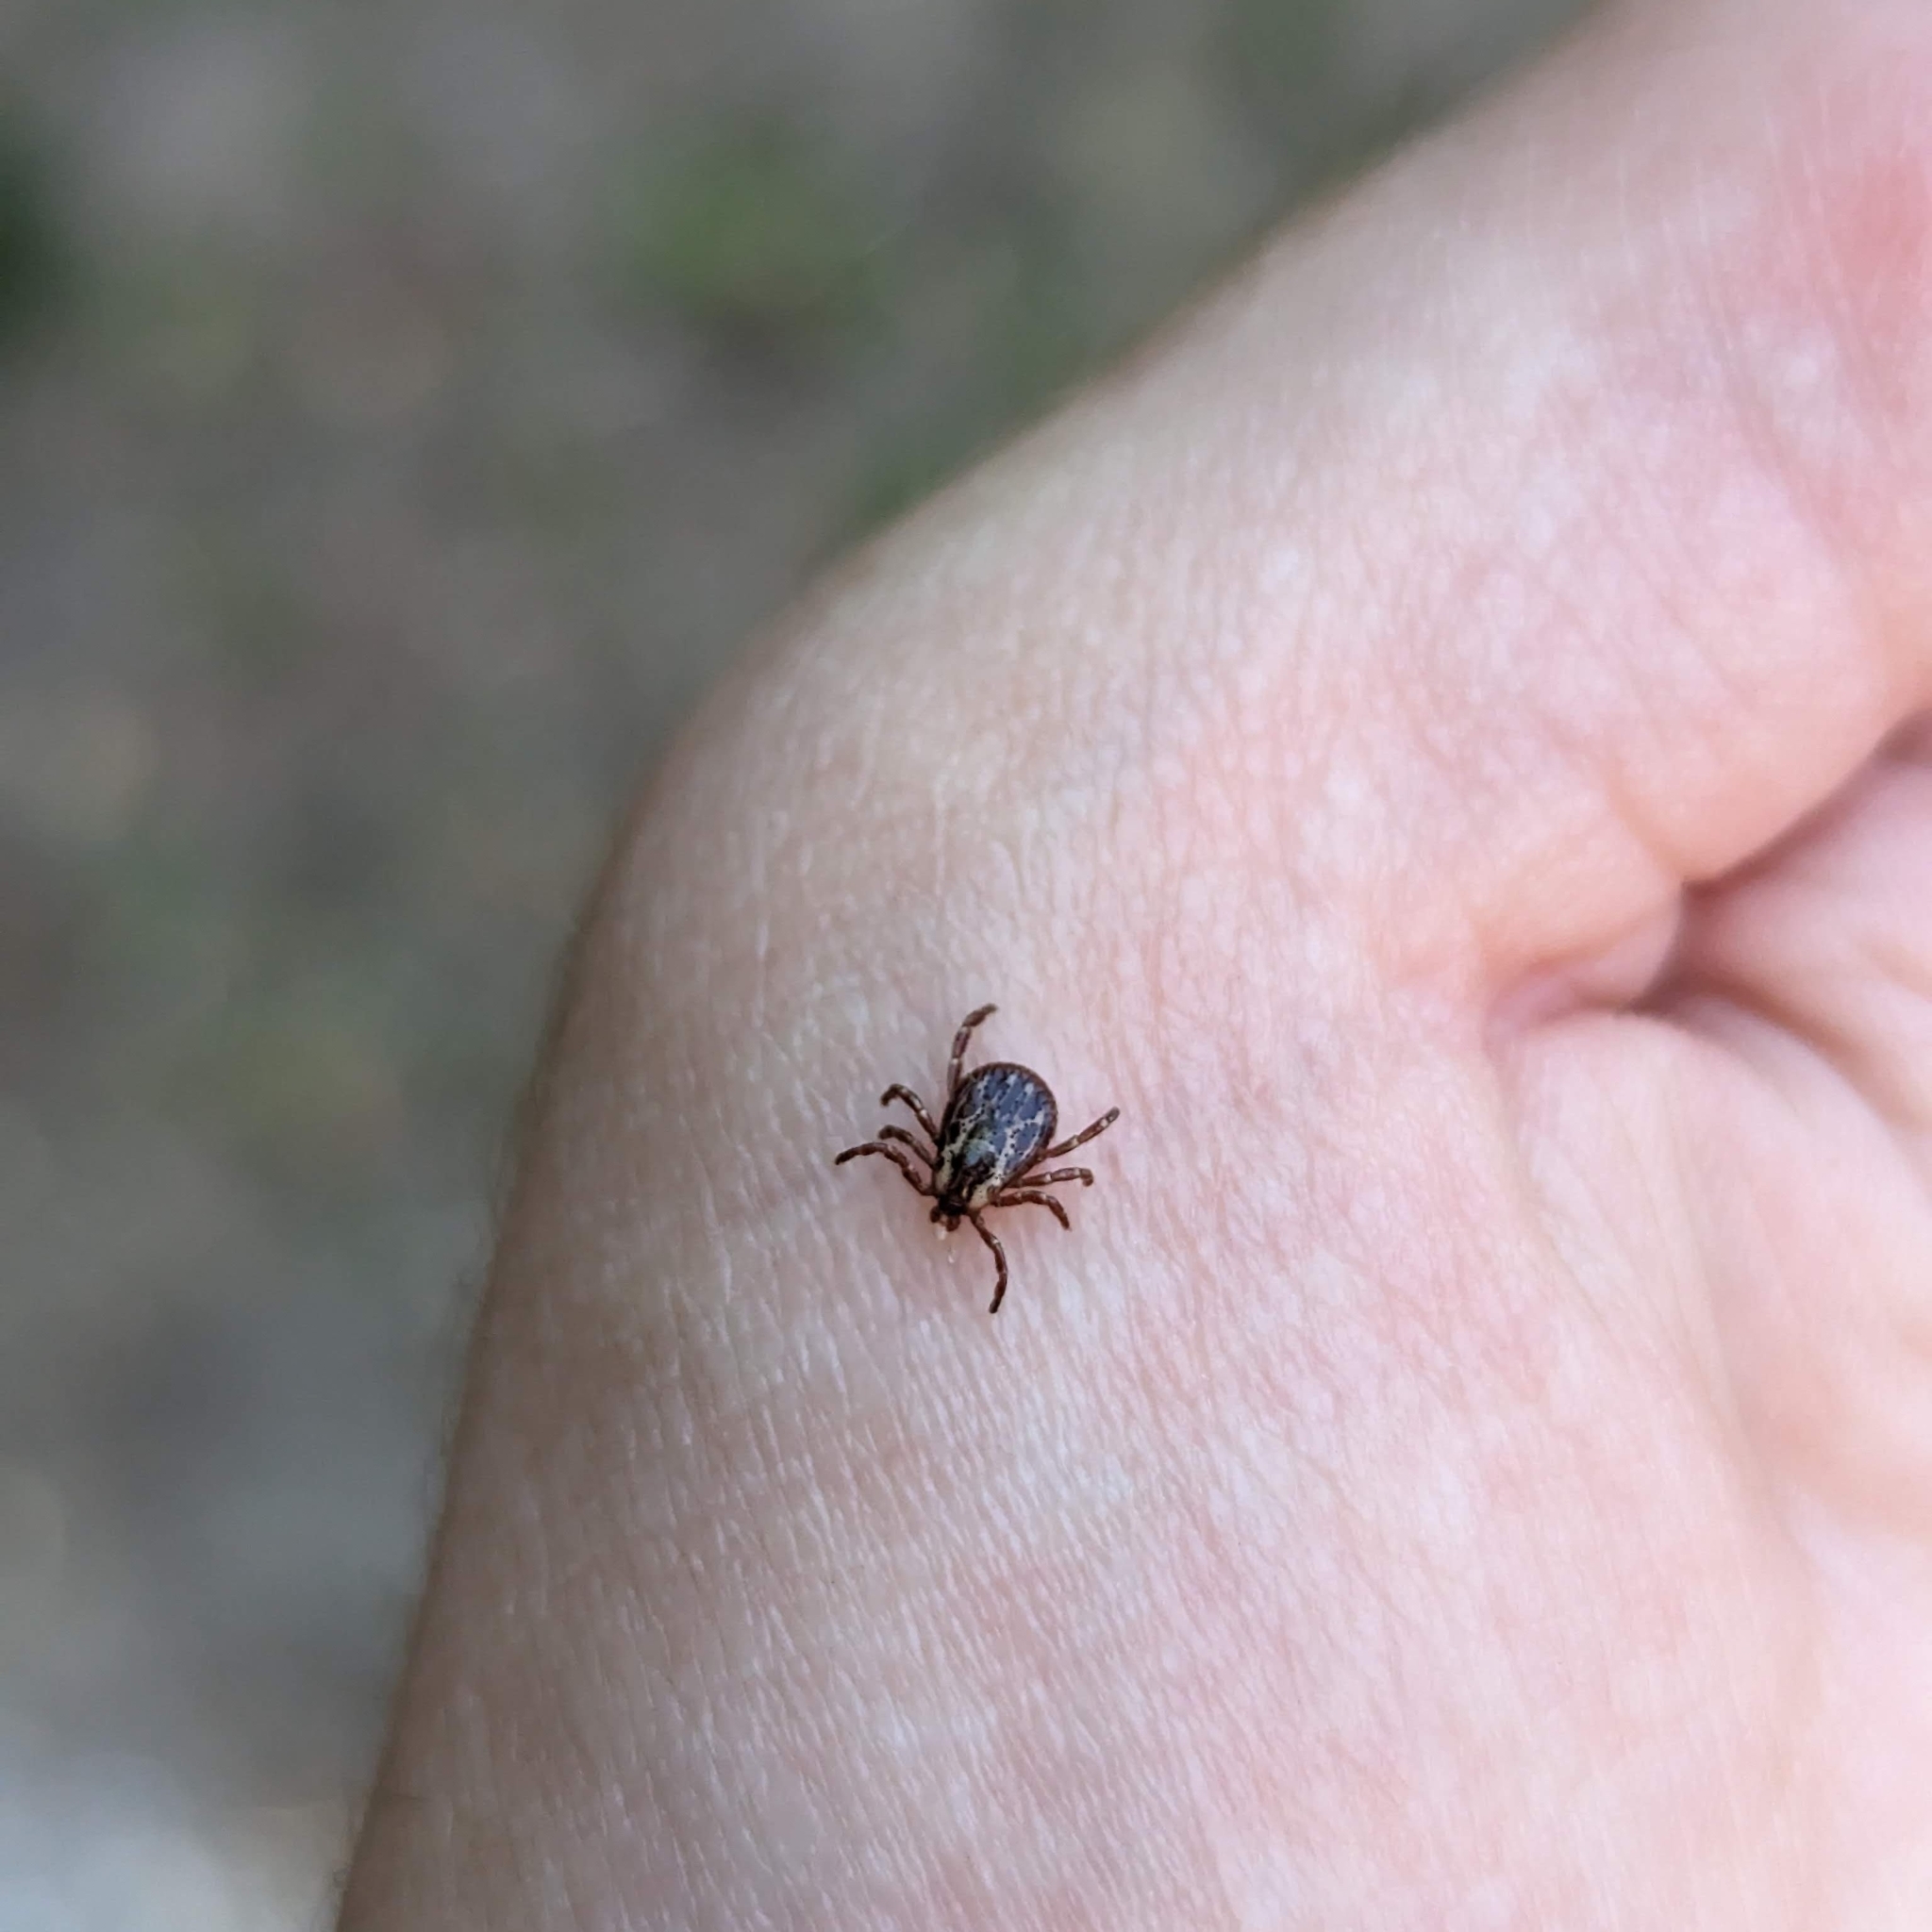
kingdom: Animalia
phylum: Arthropoda
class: Arachnida
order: Ixodida
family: Ixodidae
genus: Dermacentor
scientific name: Dermacentor variabilis
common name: American dog tick
